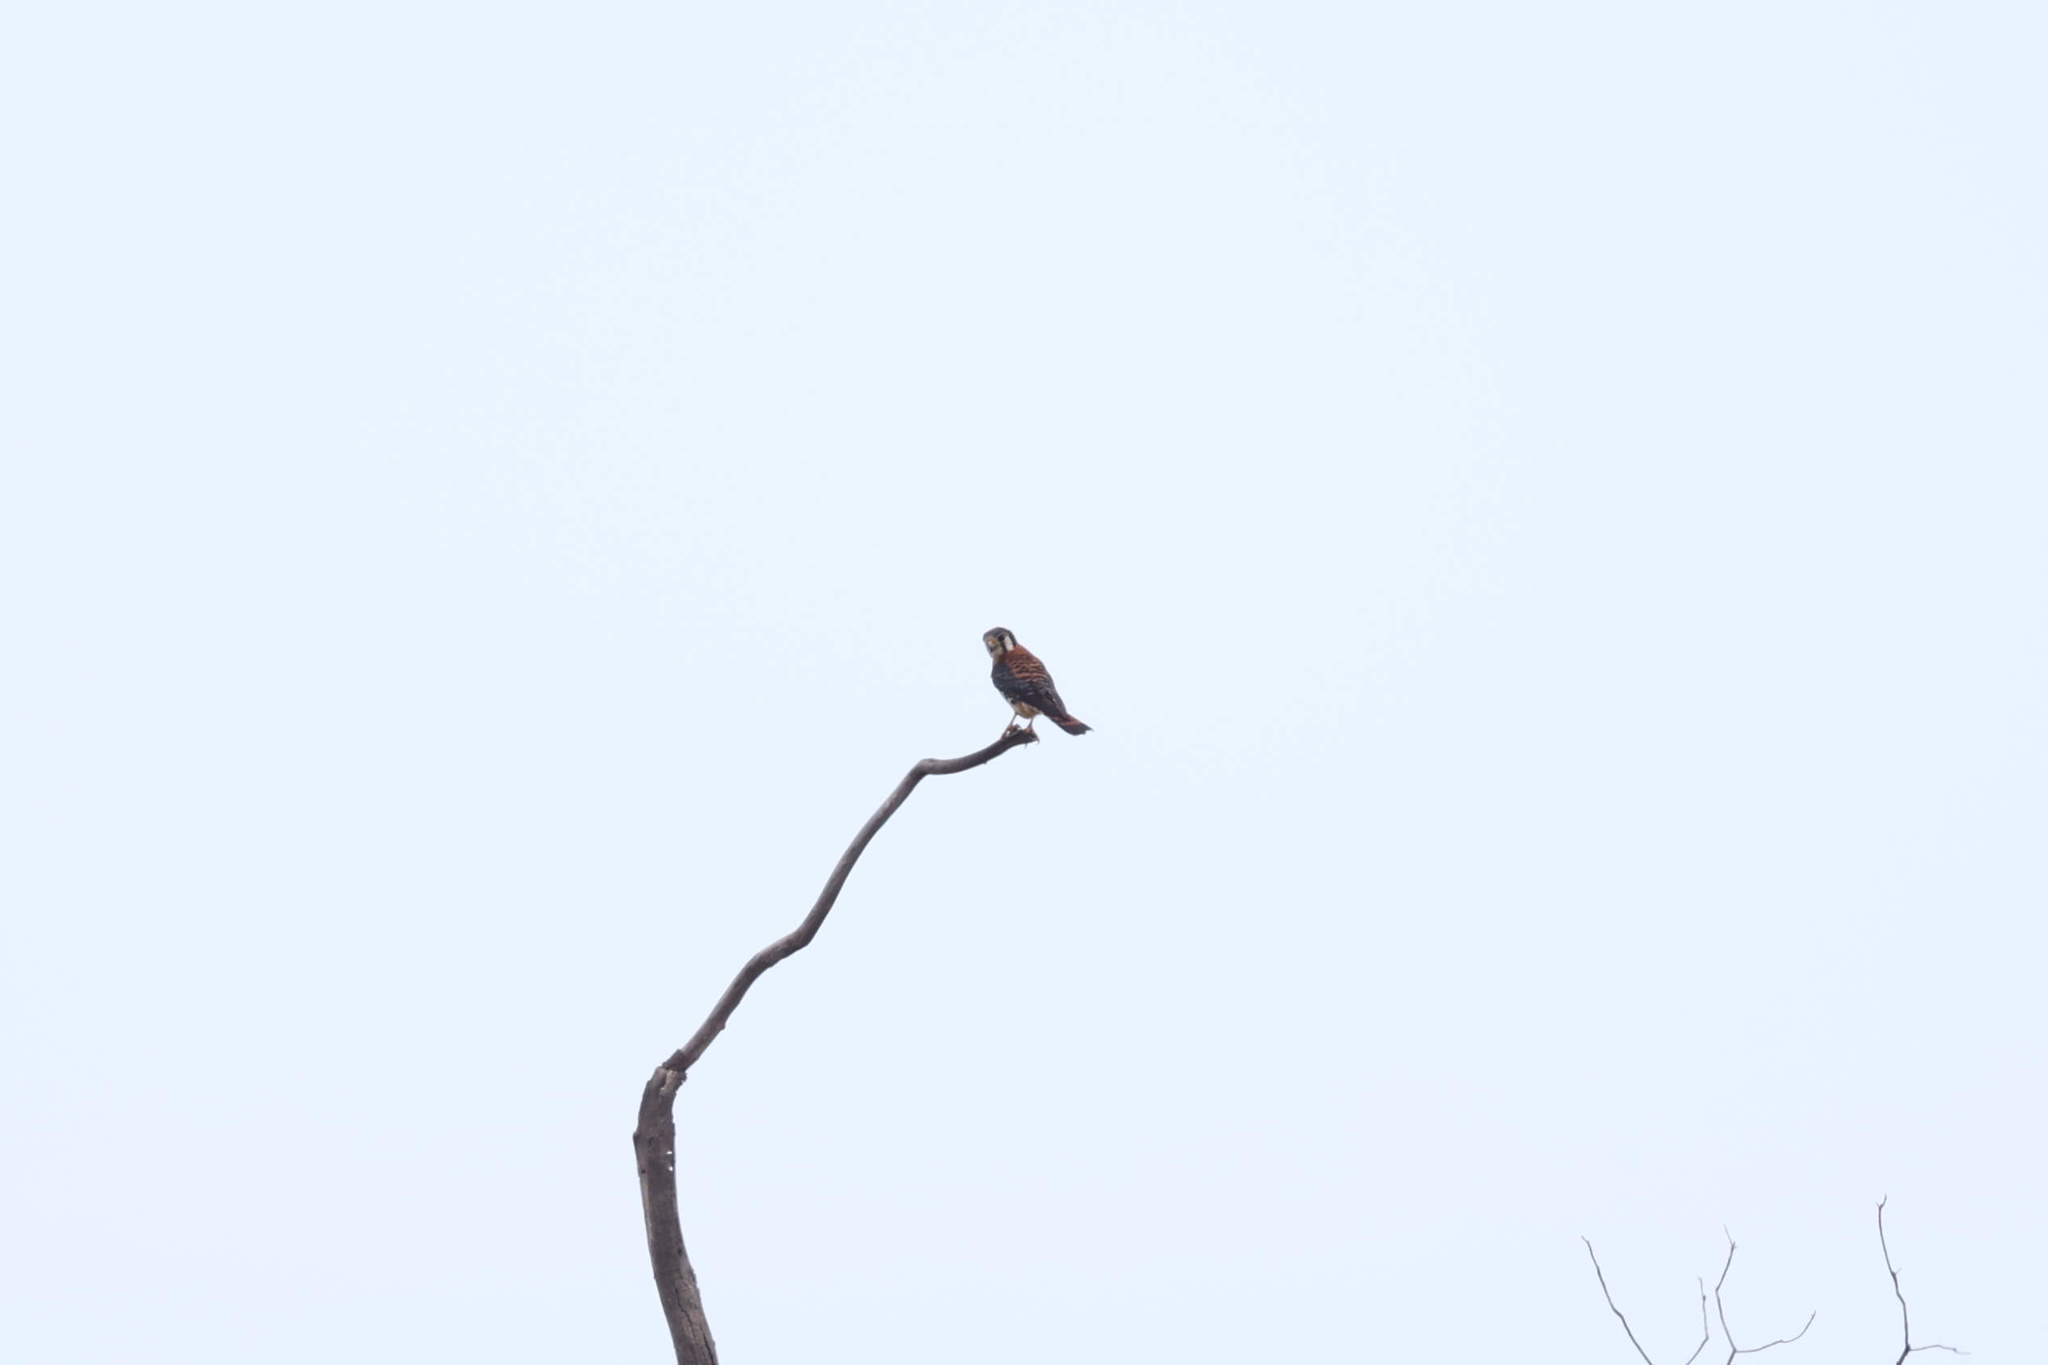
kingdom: Animalia
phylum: Chordata
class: Aves
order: Falconiformes
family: Falconidae
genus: Falco
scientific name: Falco sparverius
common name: American kestrel
